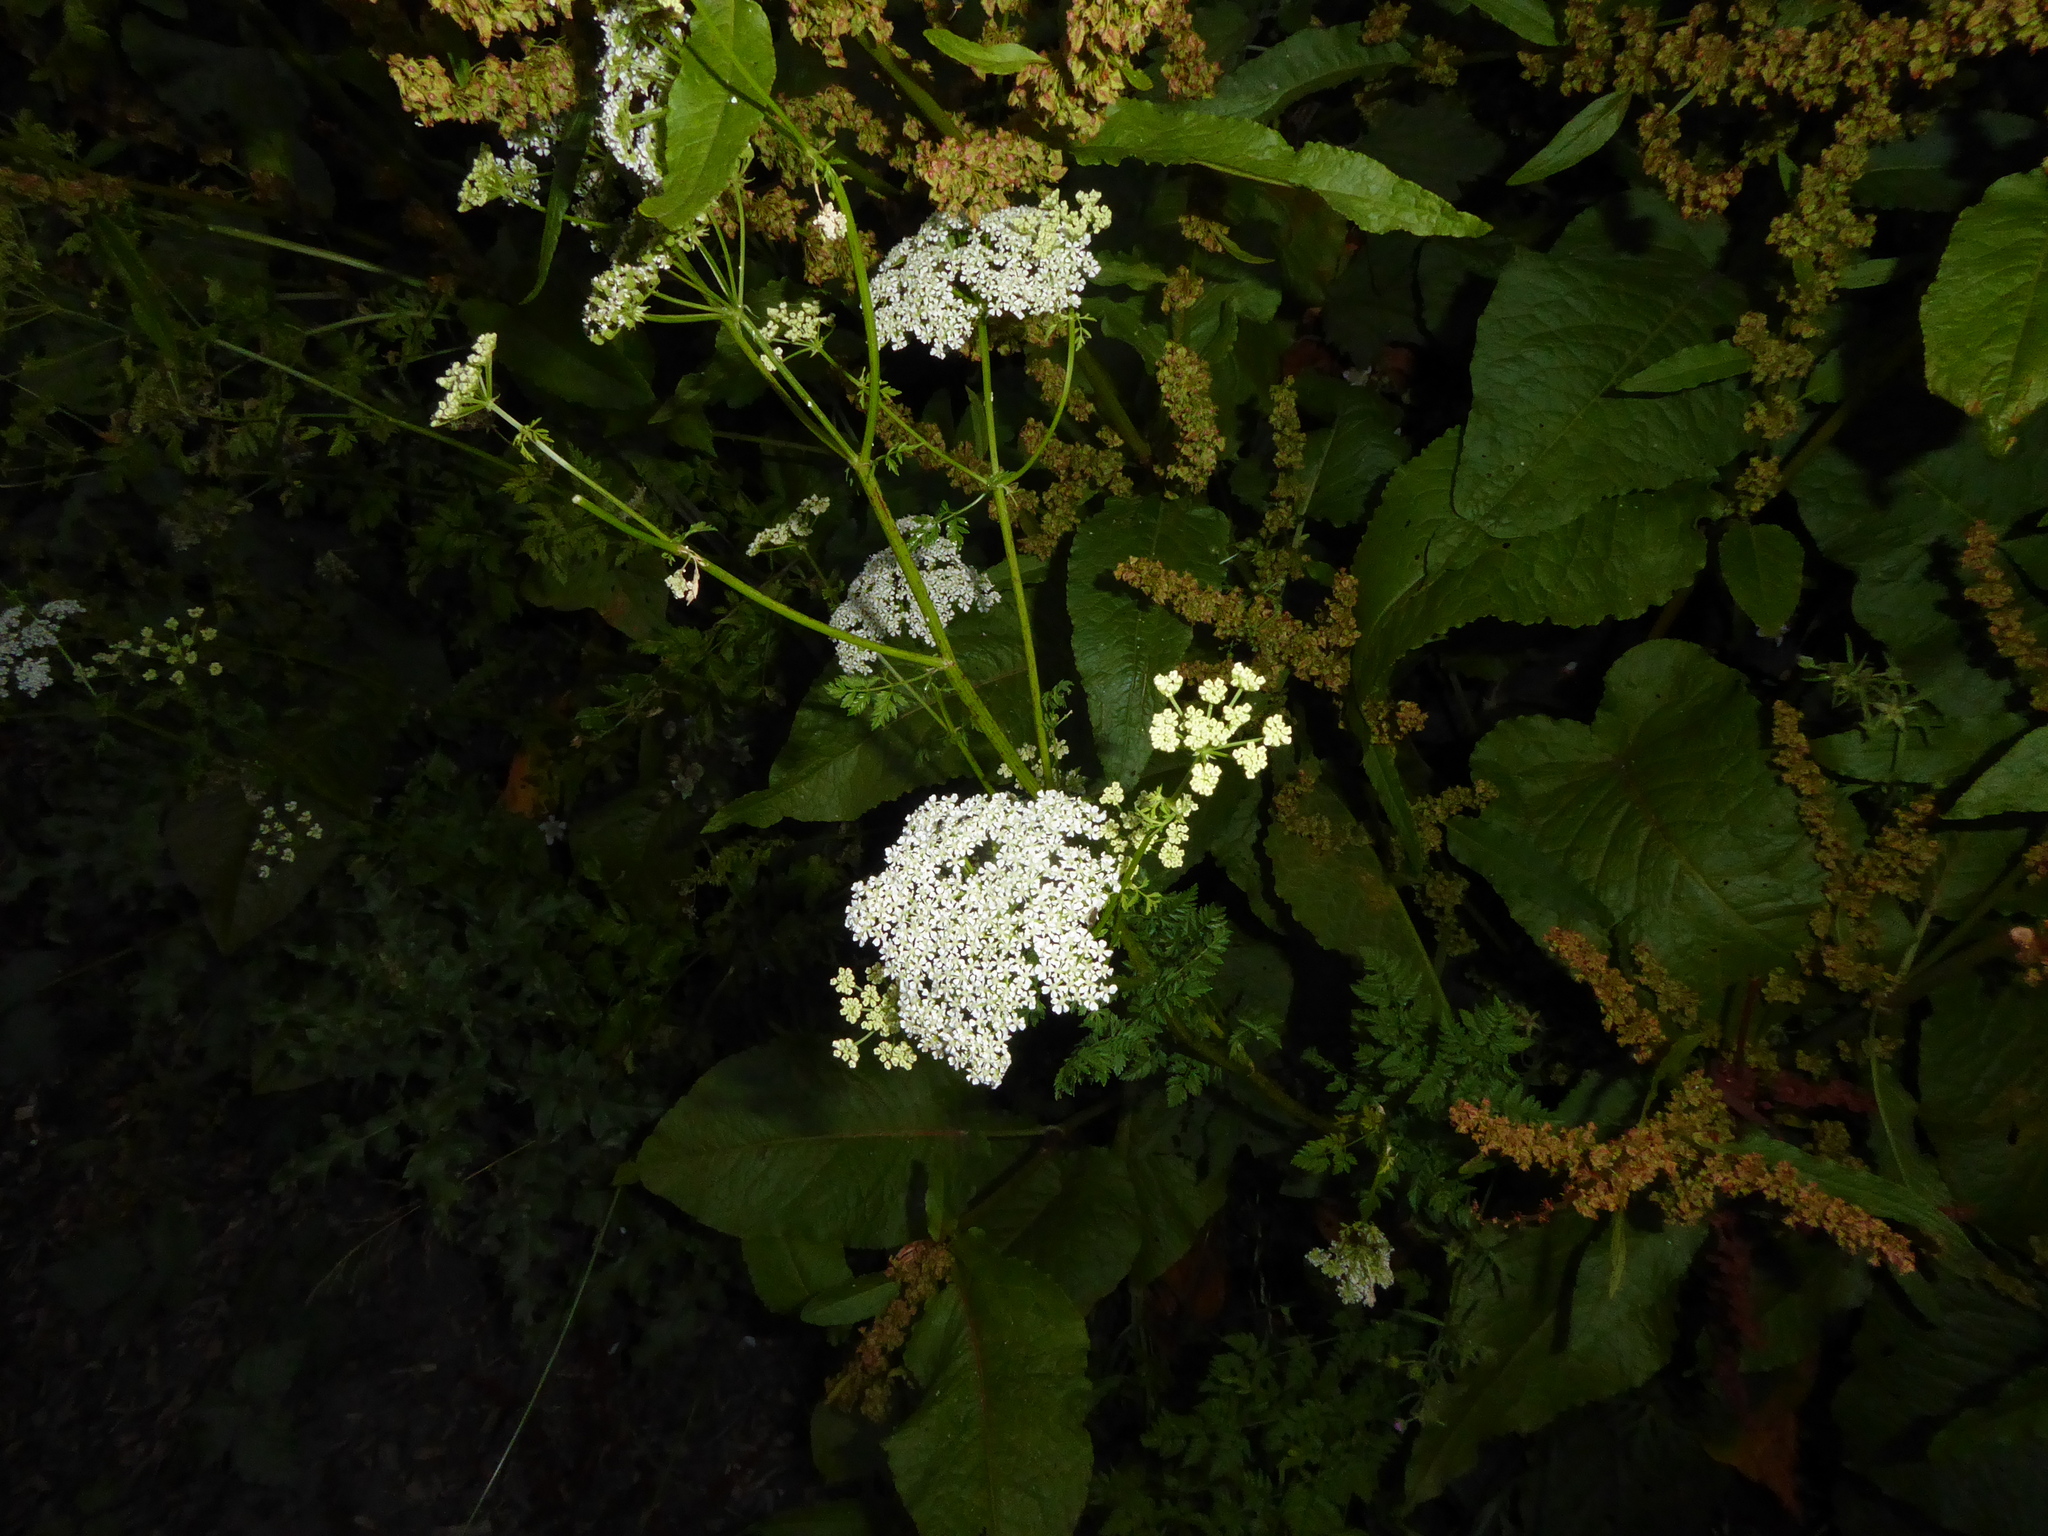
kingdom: Plantae
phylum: Tracheophyta
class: Magnoliopsida
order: Apiales
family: Apiaceae
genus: Conium
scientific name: Conium maculatum
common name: Hemlock
